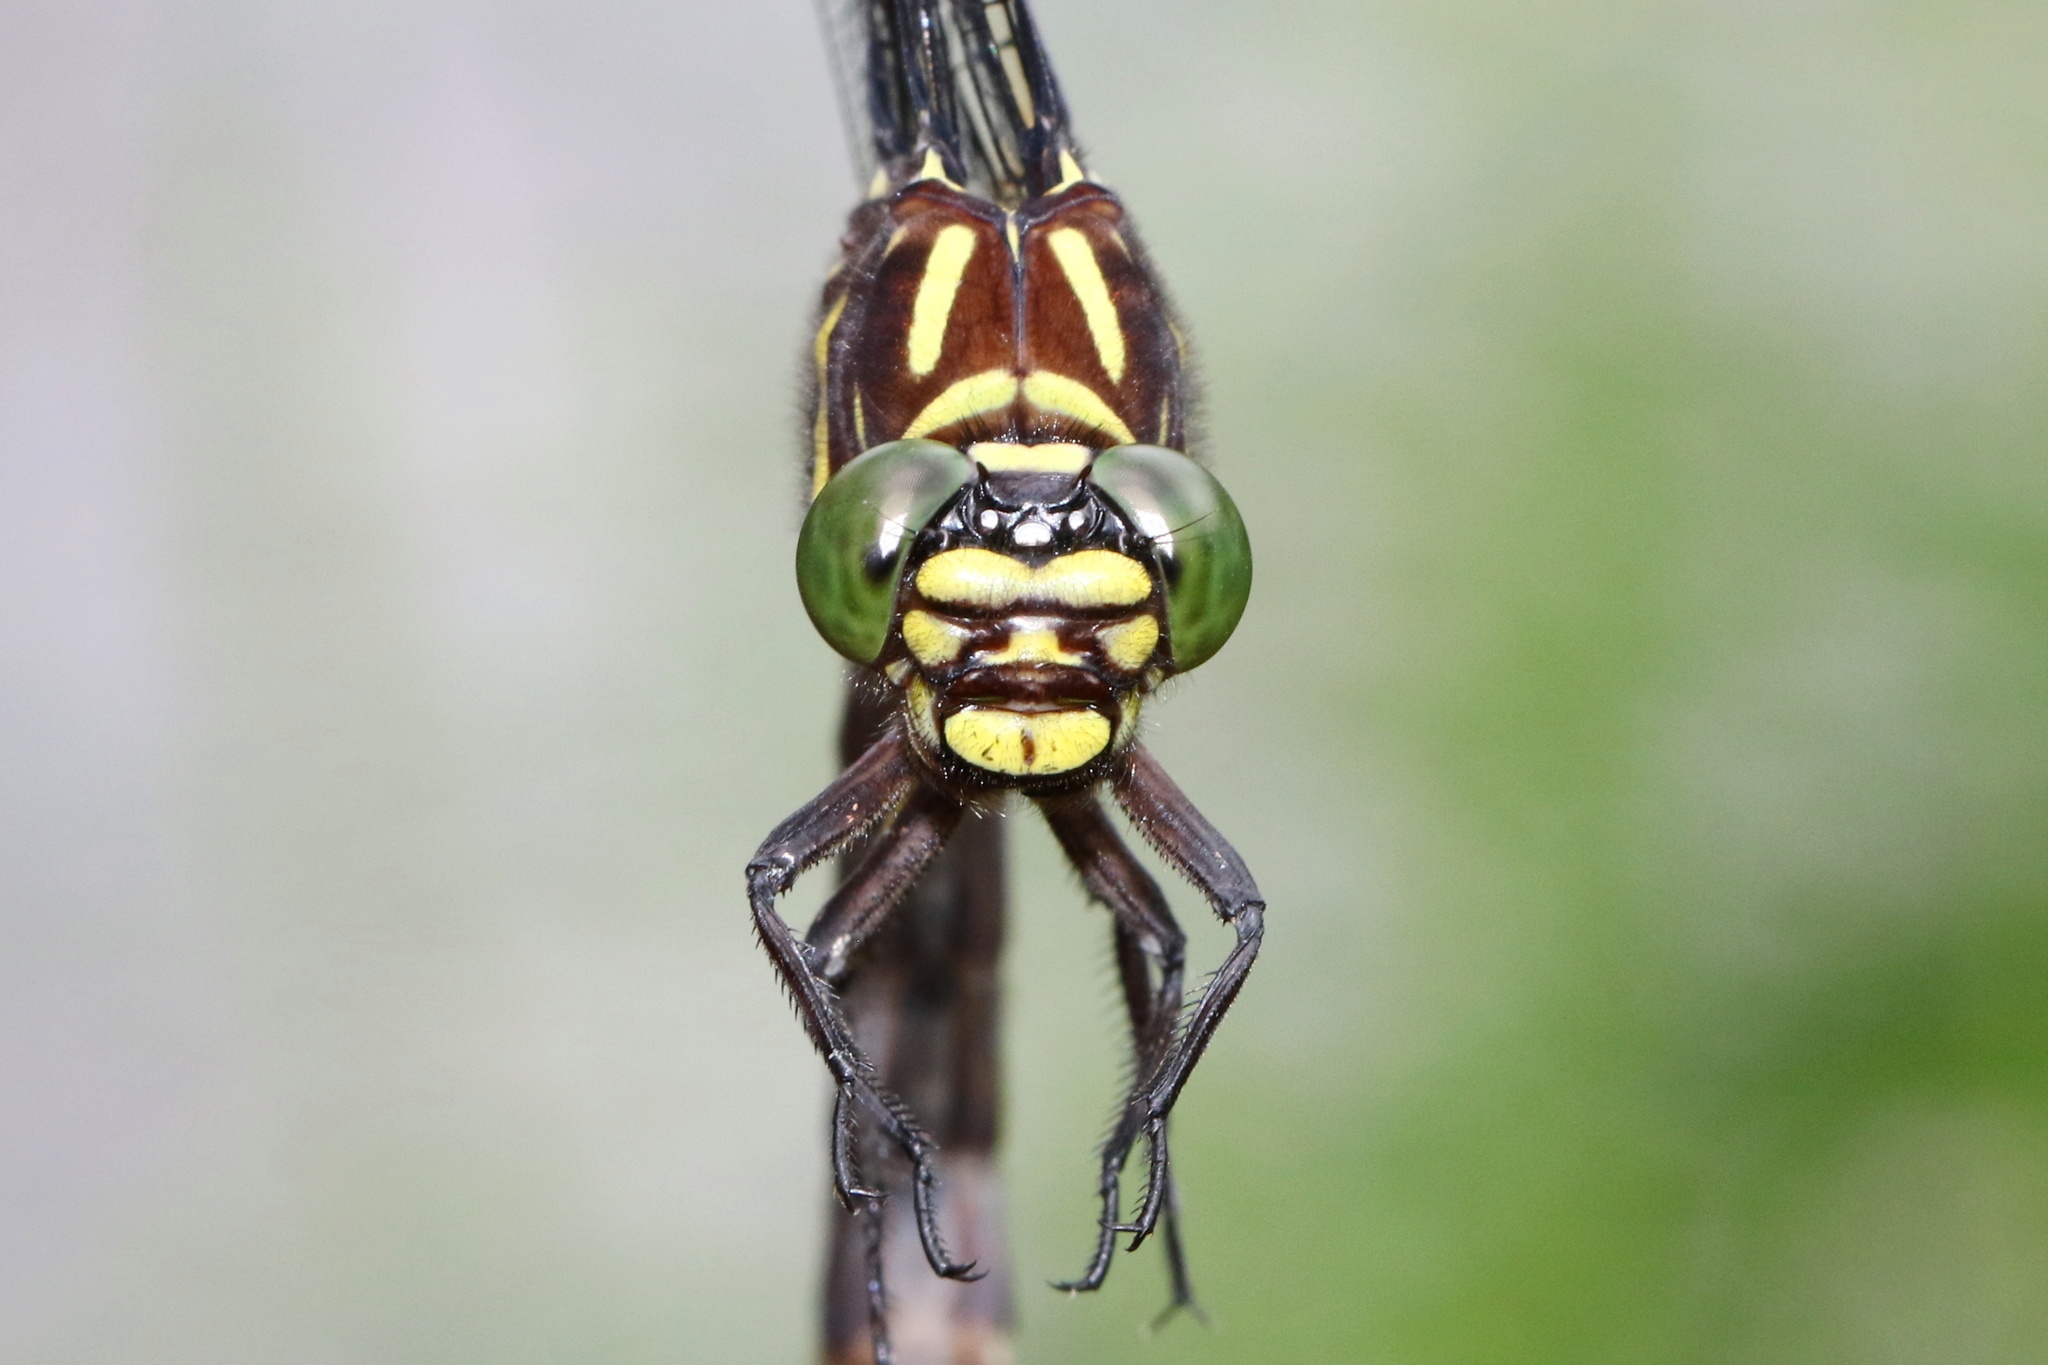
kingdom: Animalia
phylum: Arthropoda
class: Insecta
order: Odonata
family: Gomphidae
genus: Stylurus
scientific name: Stylurus scudderi
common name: Zebra clubtail
